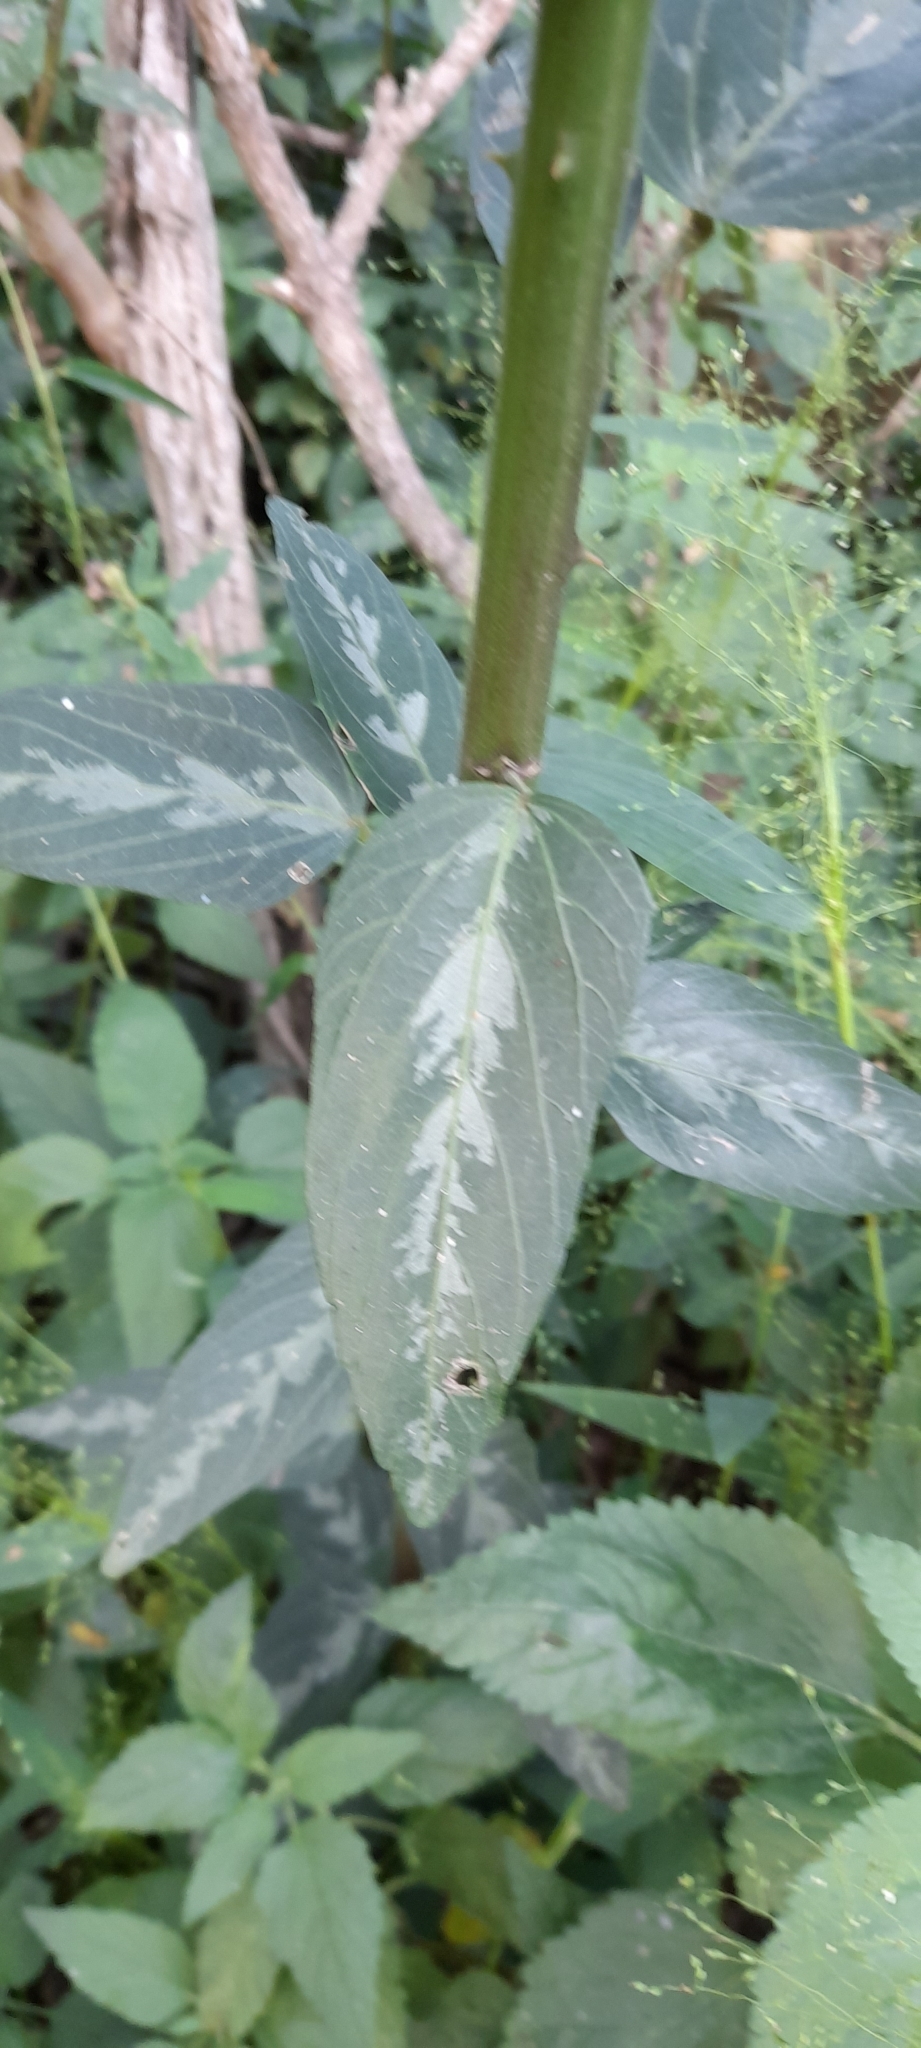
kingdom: Plantae
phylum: Tracheophyta
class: Magnoliopsida
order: Malvales
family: Malvaceae
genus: Byttneria
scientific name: Byttneria filipes
